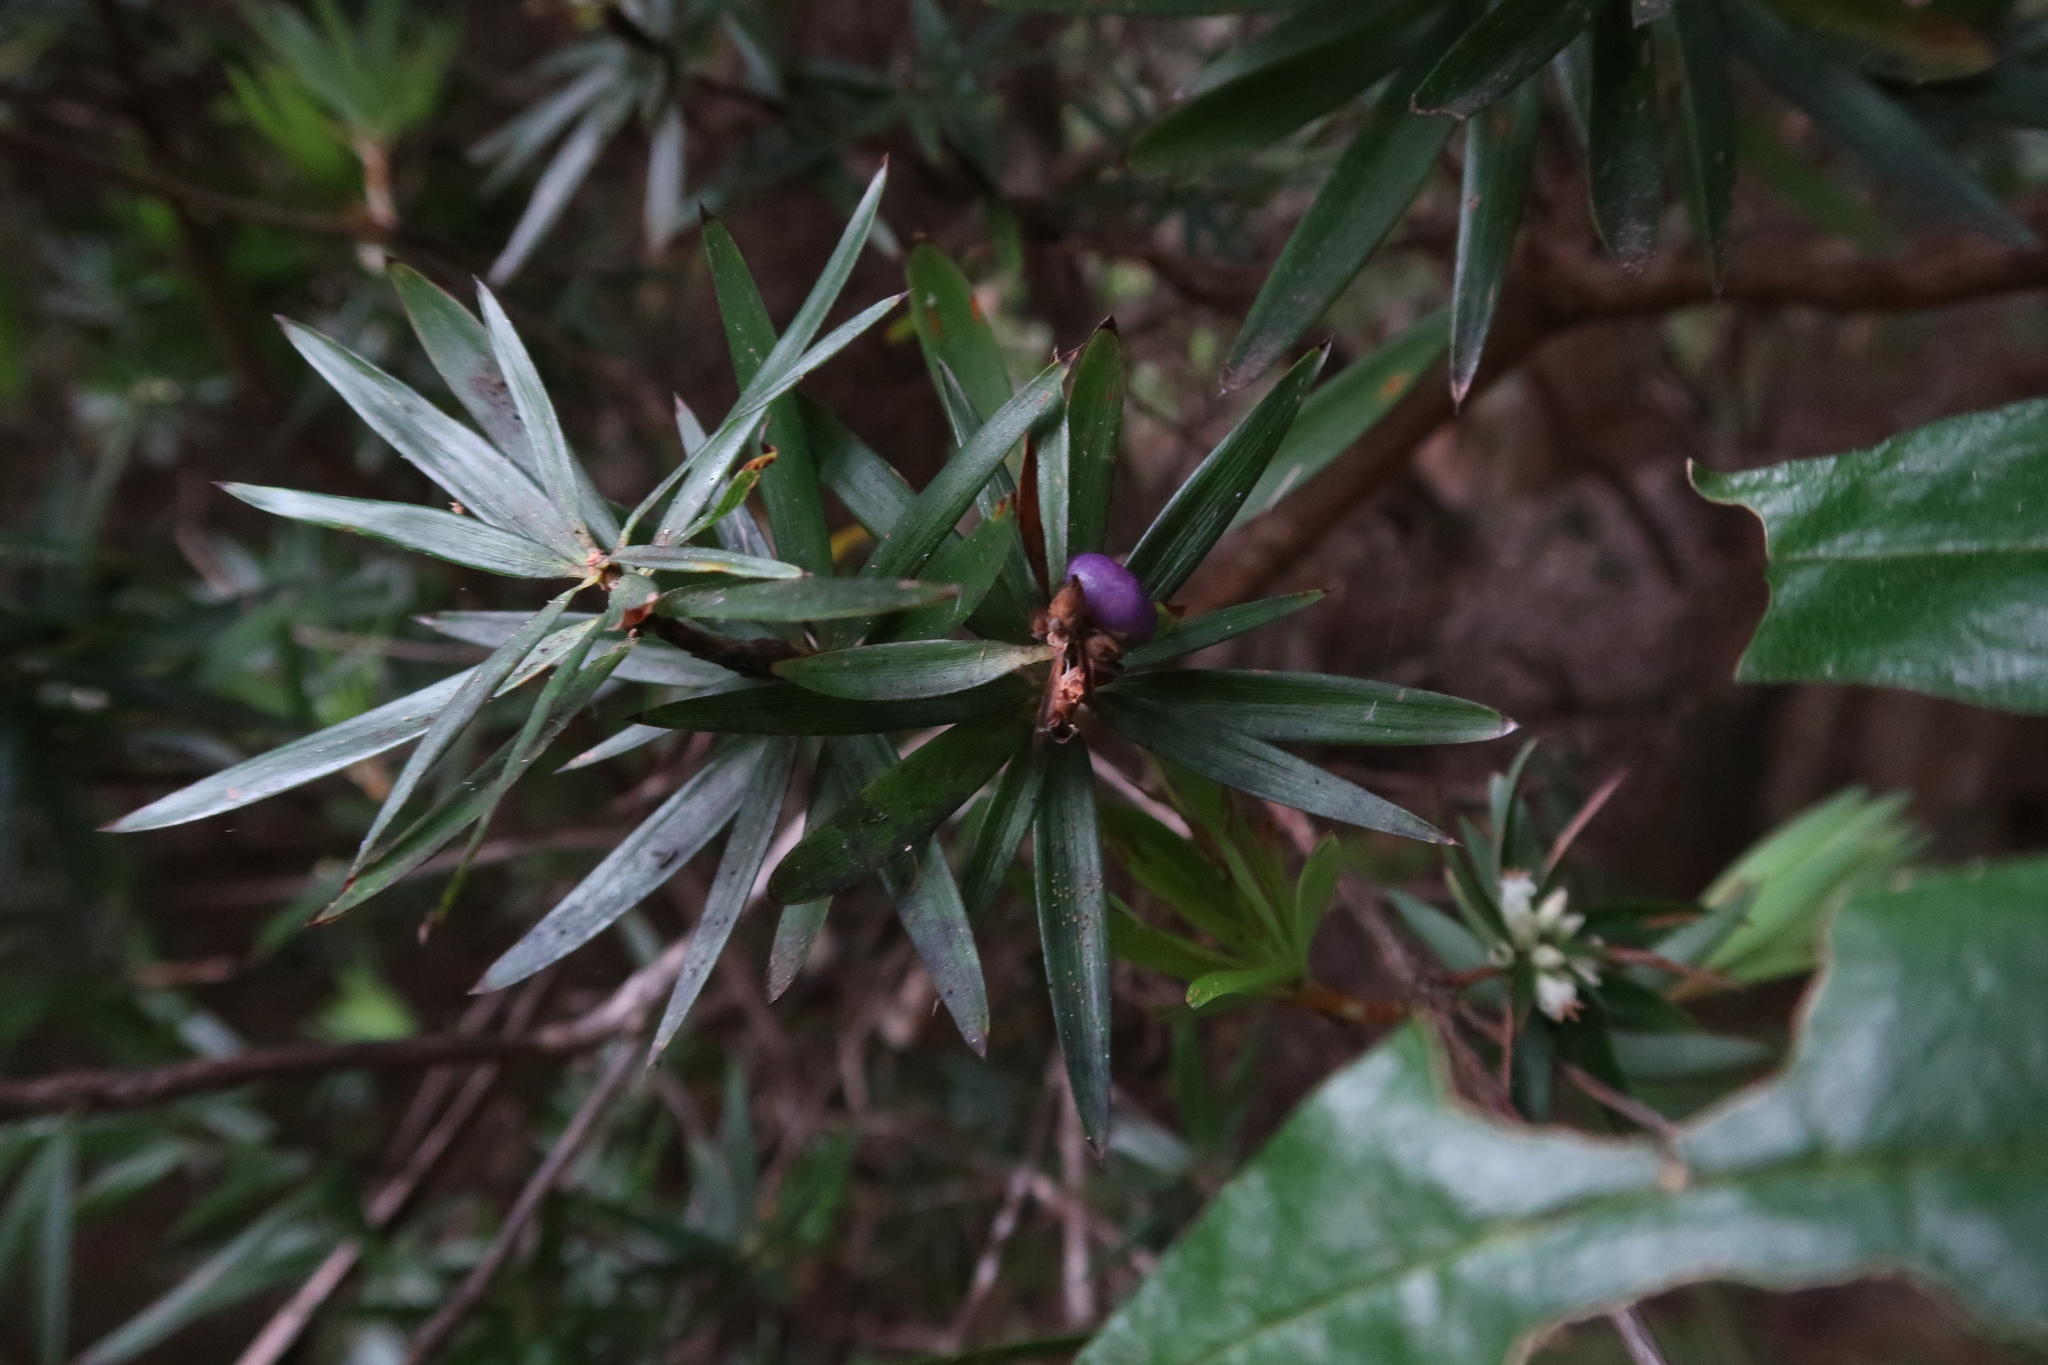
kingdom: Plantae
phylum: Tracheophyta
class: Magnoliopsida
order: Ericales
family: Ericaceae
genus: Cyathodes
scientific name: Cyathodes platystoma
